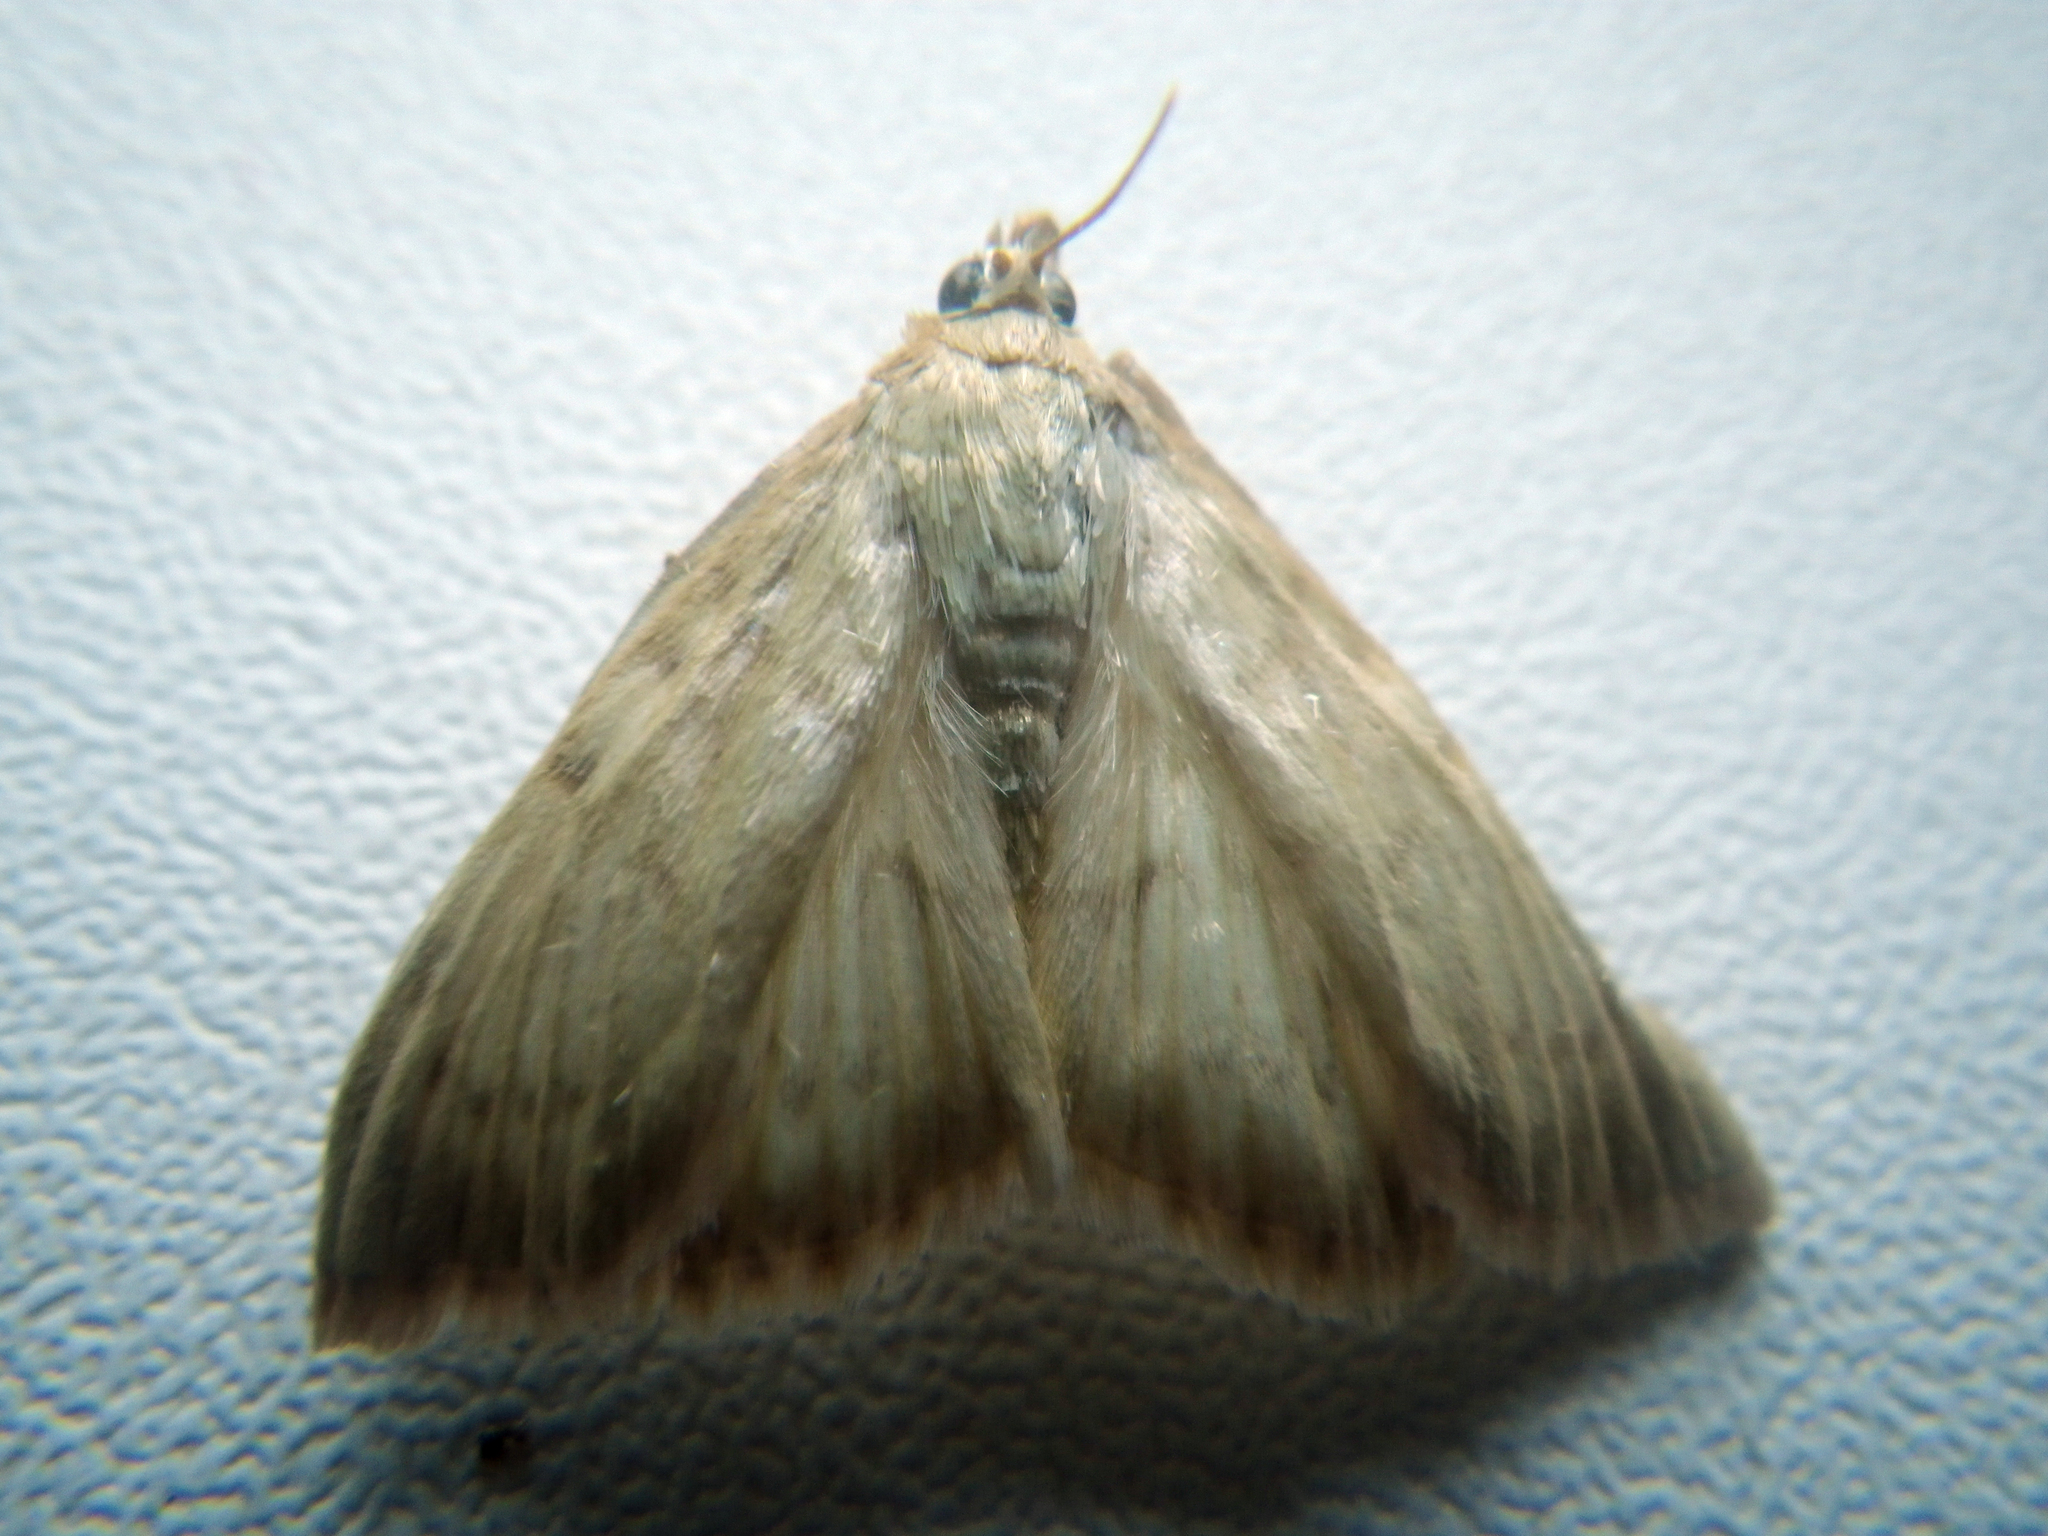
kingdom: Animalia
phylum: Arthropoda
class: Insecta
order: Lepidoptera
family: Crambidae
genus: Patania
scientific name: Patania ruralis
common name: Mother of pearl
